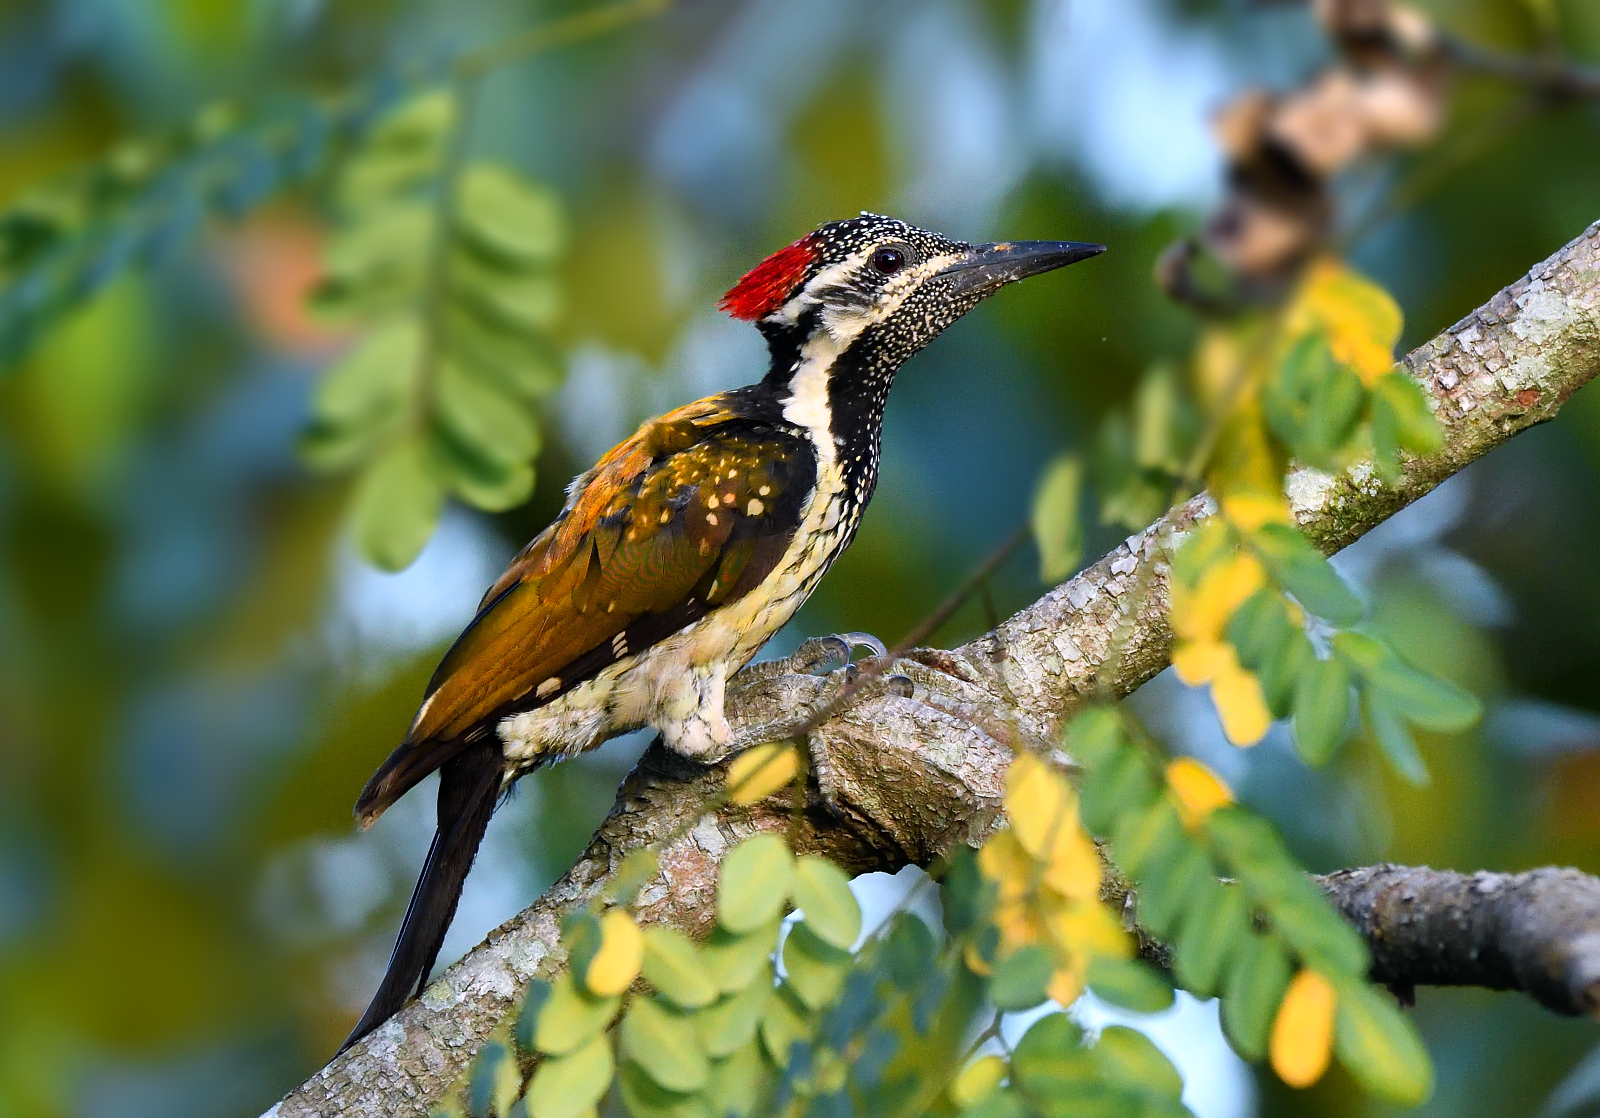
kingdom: Animalia
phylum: Chordata
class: Aves
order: Piciformes
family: Picidae
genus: Dinopium
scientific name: Dinopium benghalense
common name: Black-rumped flameback
